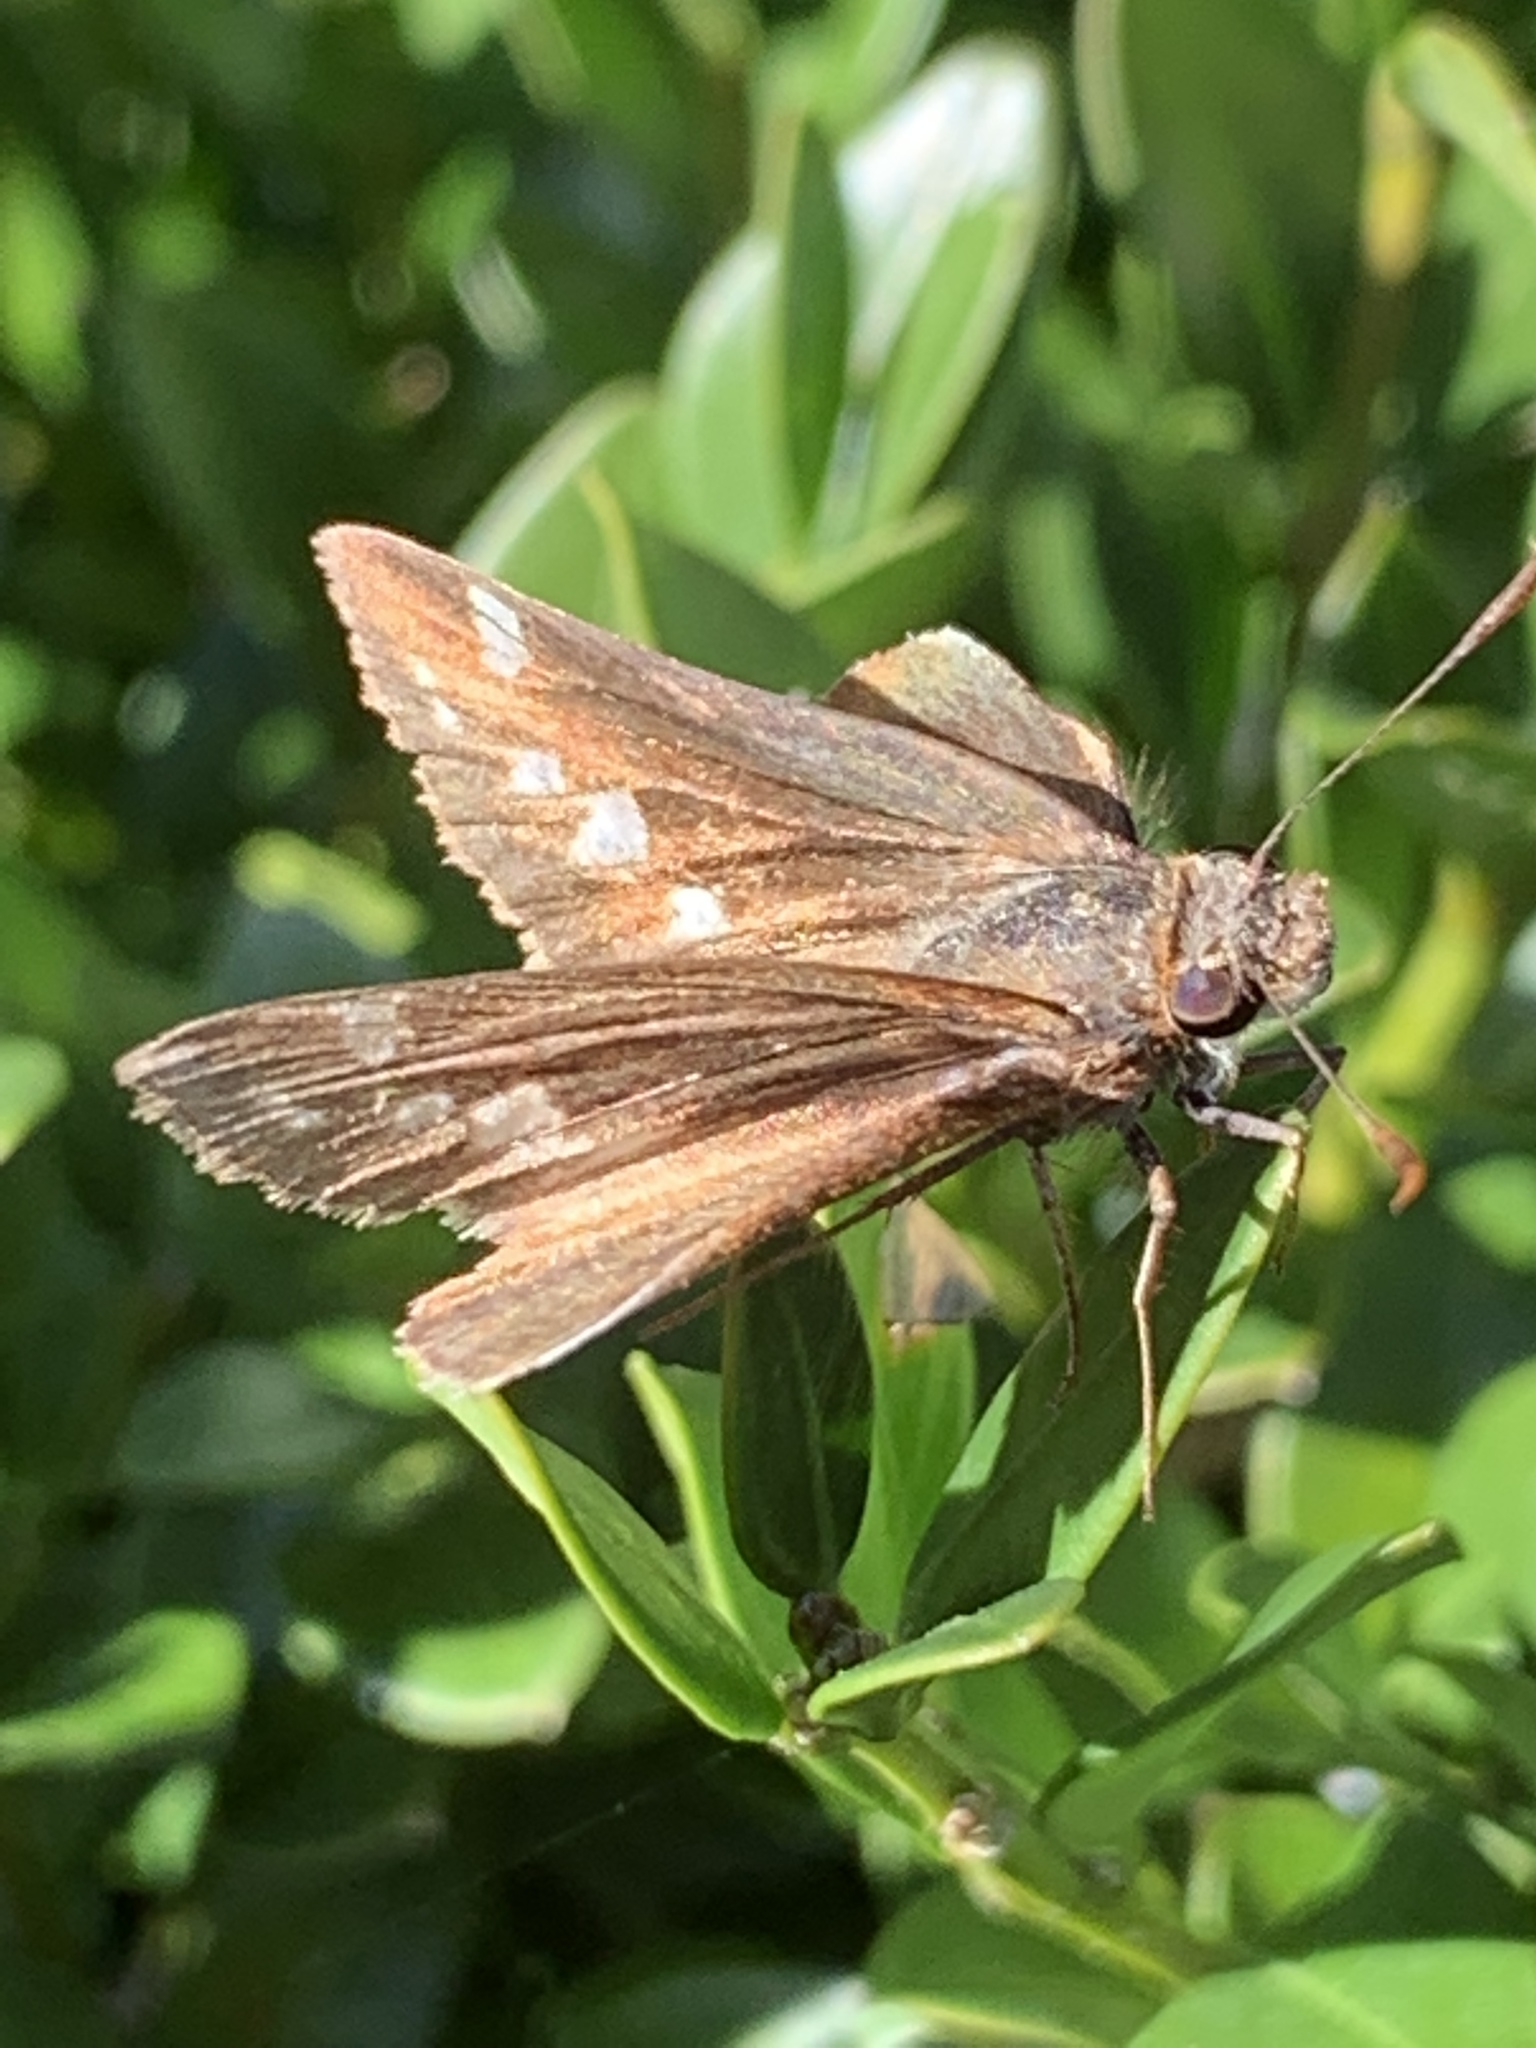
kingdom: Animalia
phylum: Arthropoda
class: Insecta
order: Lepidoptera
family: Hesperiidae
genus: Lon
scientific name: Lon zabulon
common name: Zabulon skipper
